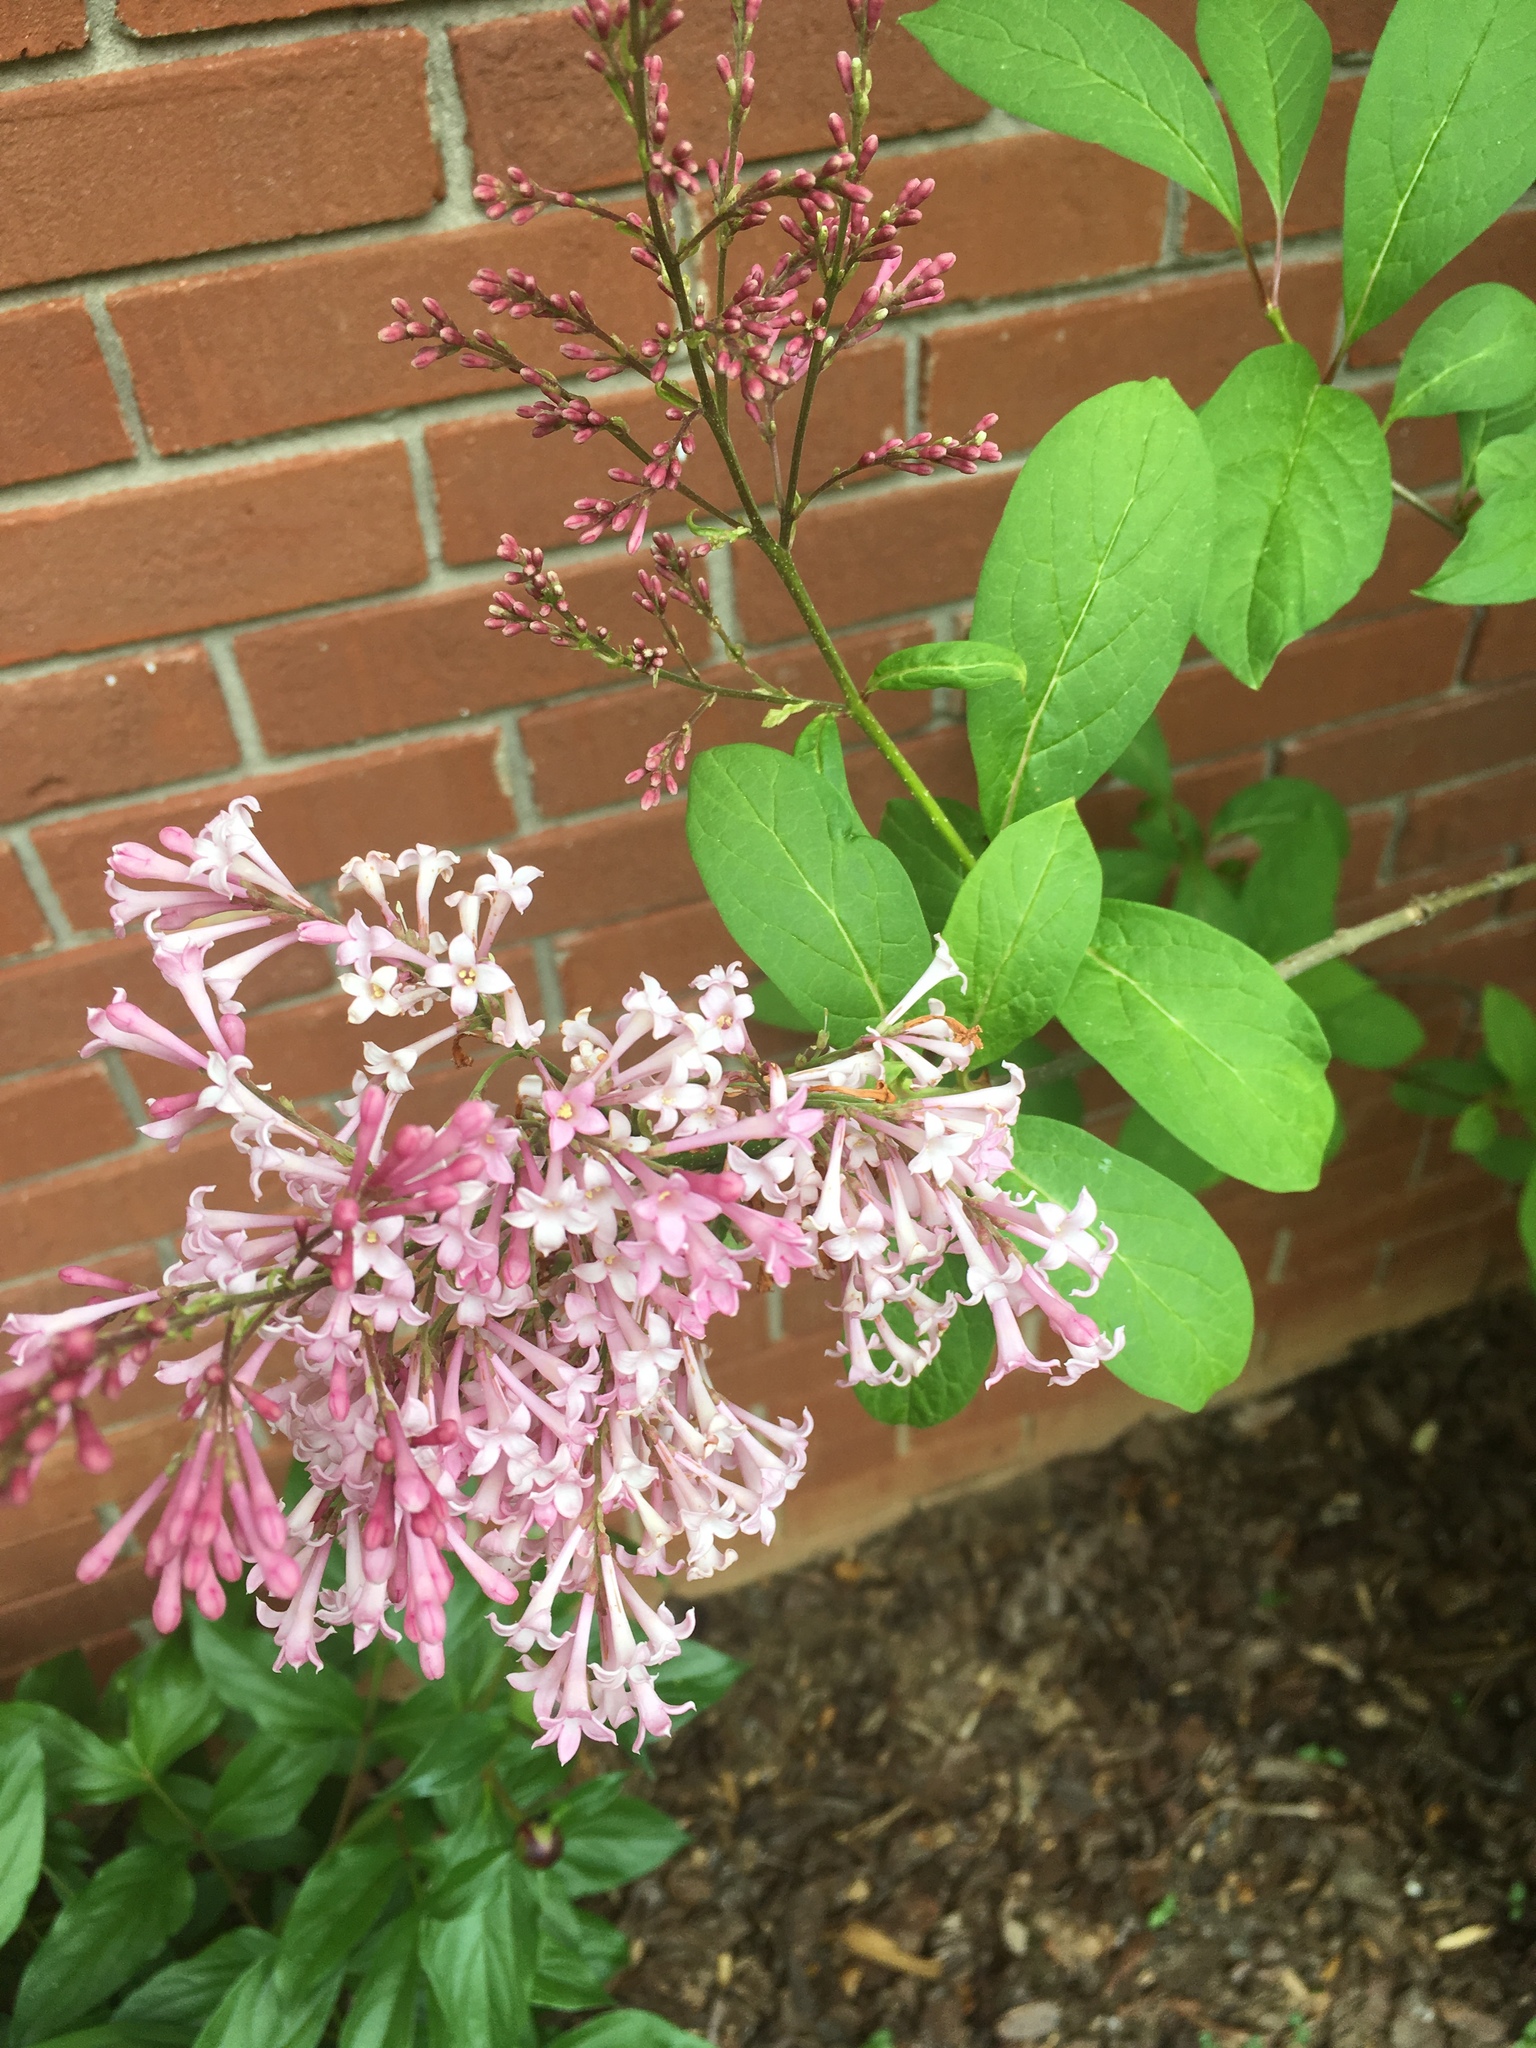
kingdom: Plantae
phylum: Tracheophyta
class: Magnoliopsida
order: Lamiales
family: Oleaceae
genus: Syringa
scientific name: Syringa vulgaris
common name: Common lilac
